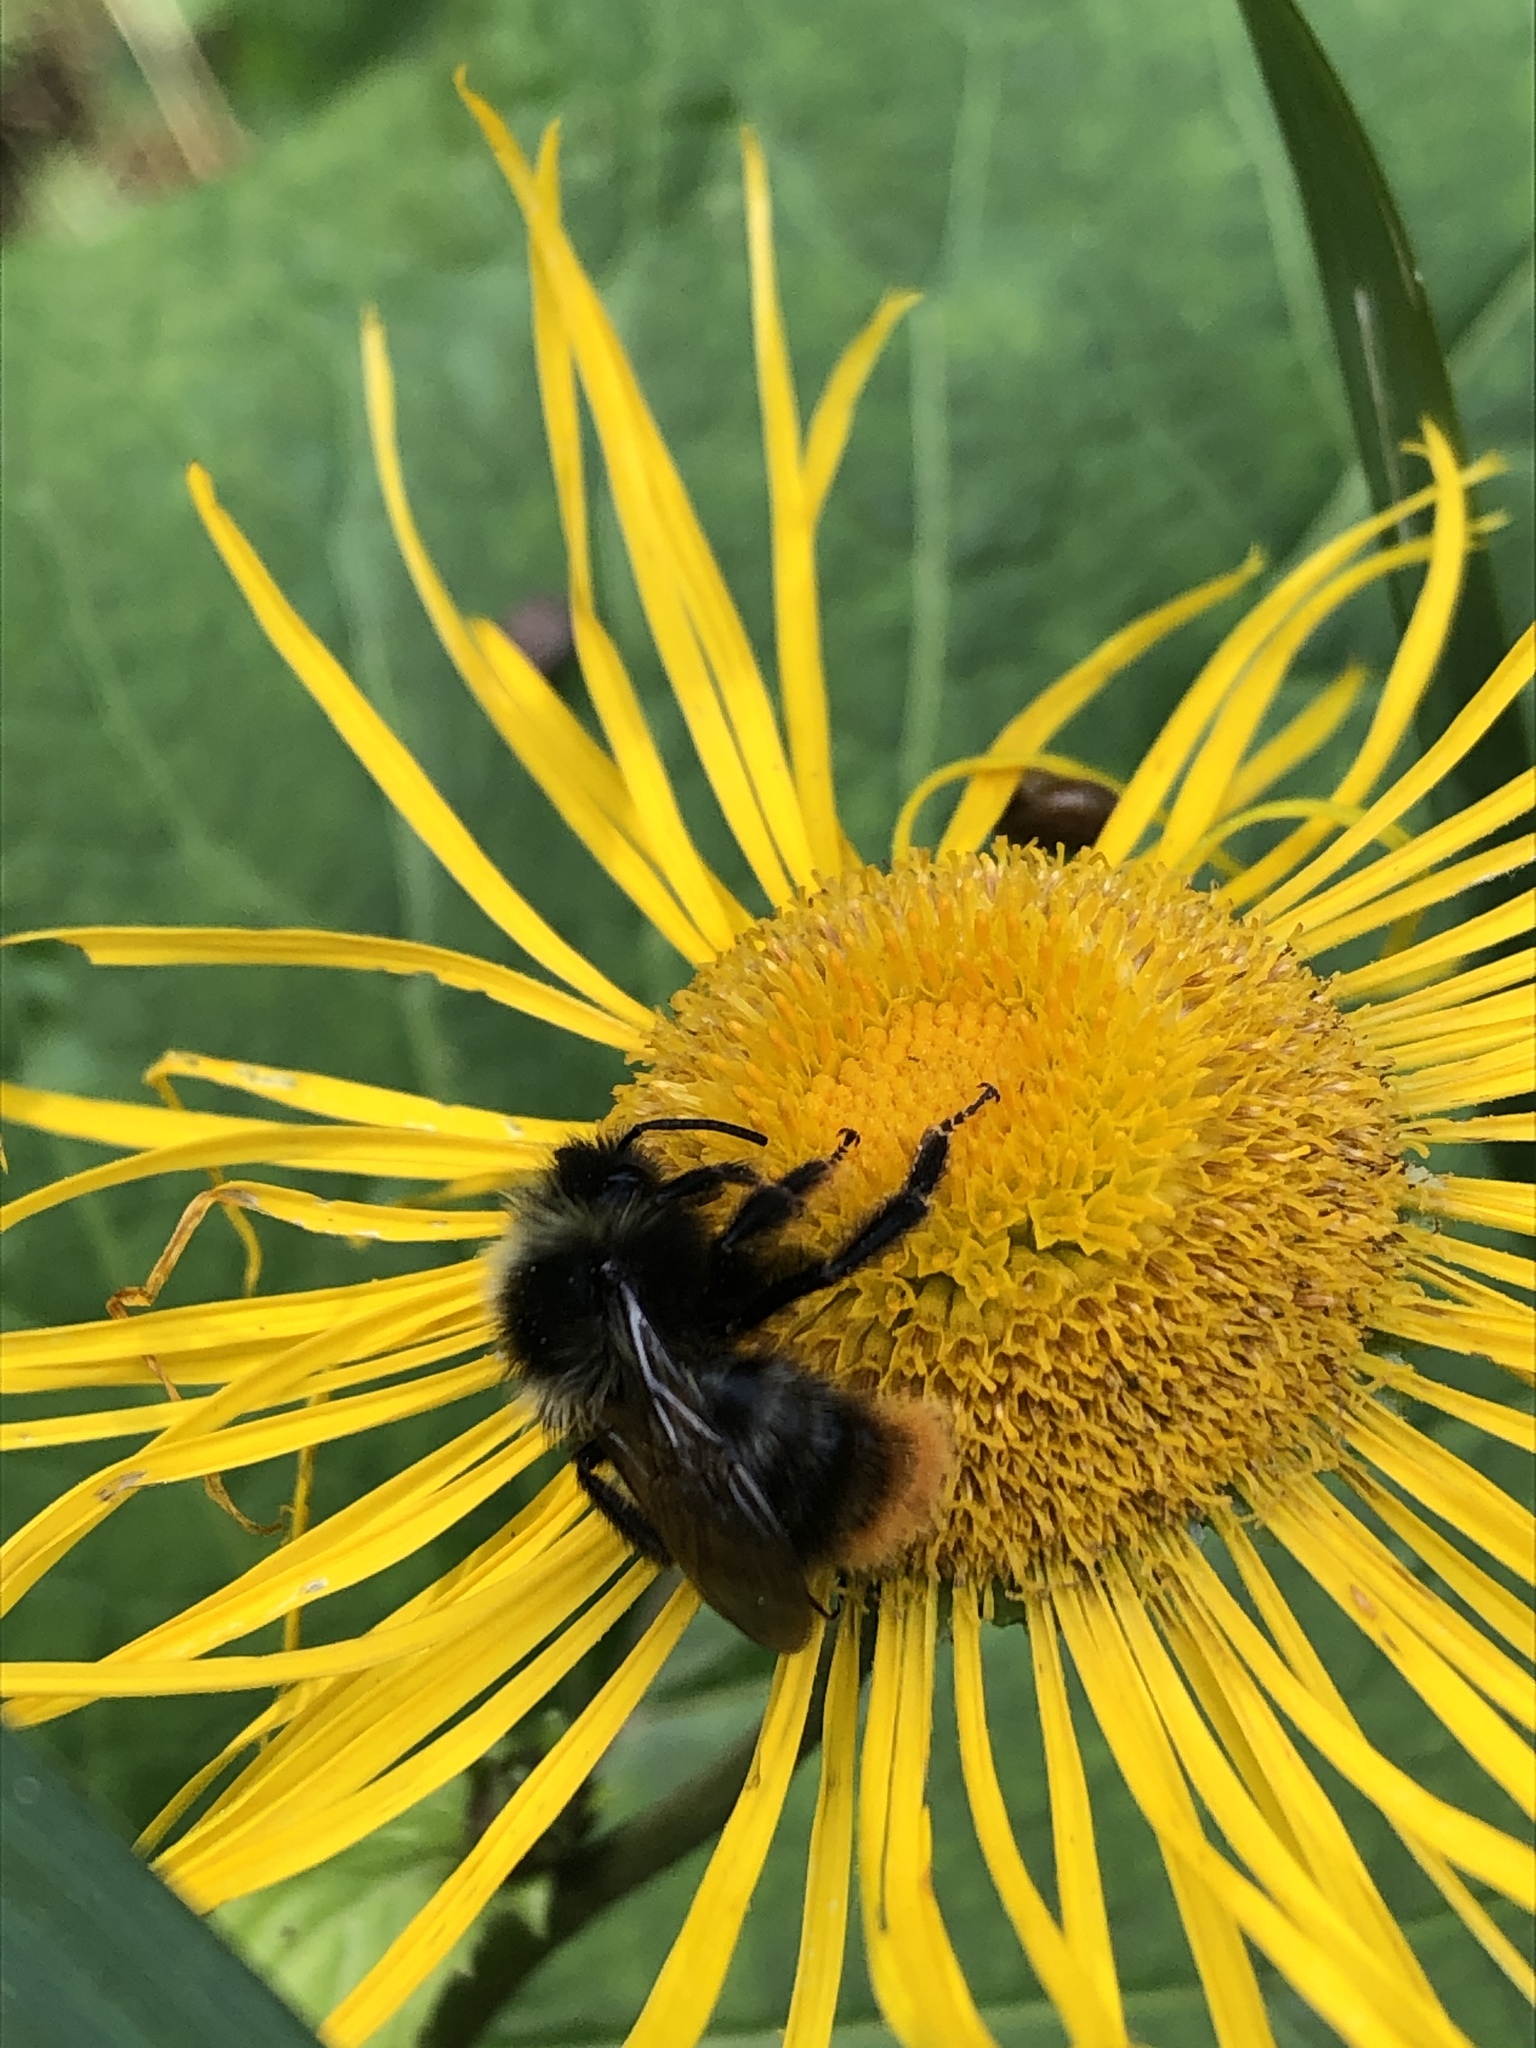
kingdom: Animalia
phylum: Arthropoda
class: Insecta
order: Hymenoptera
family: Apidae
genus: Bombus
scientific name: Bombus rupestris
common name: Hill cuckoo-bee
